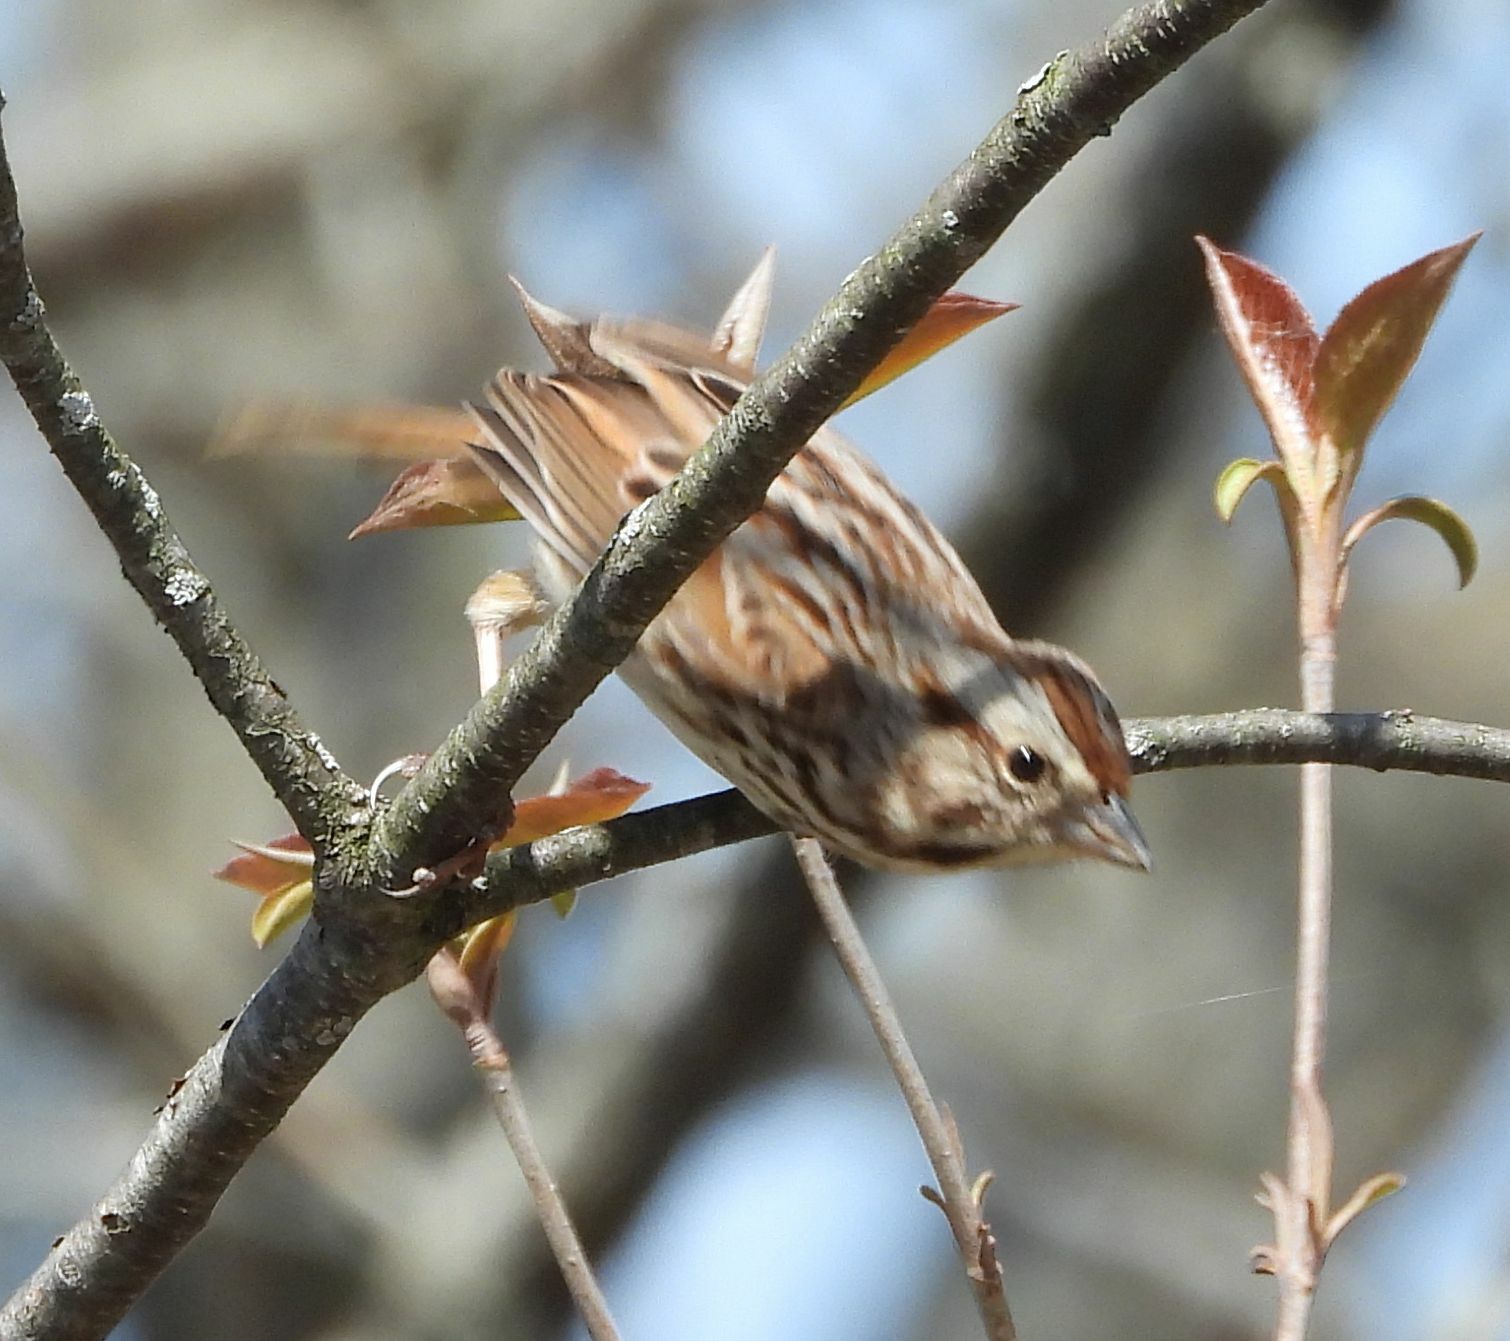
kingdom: Animalia
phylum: Chordata
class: Aves
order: Passeriformes
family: Passerellidae
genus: Melospiza
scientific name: Melospiza melodia
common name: Song sparrow
